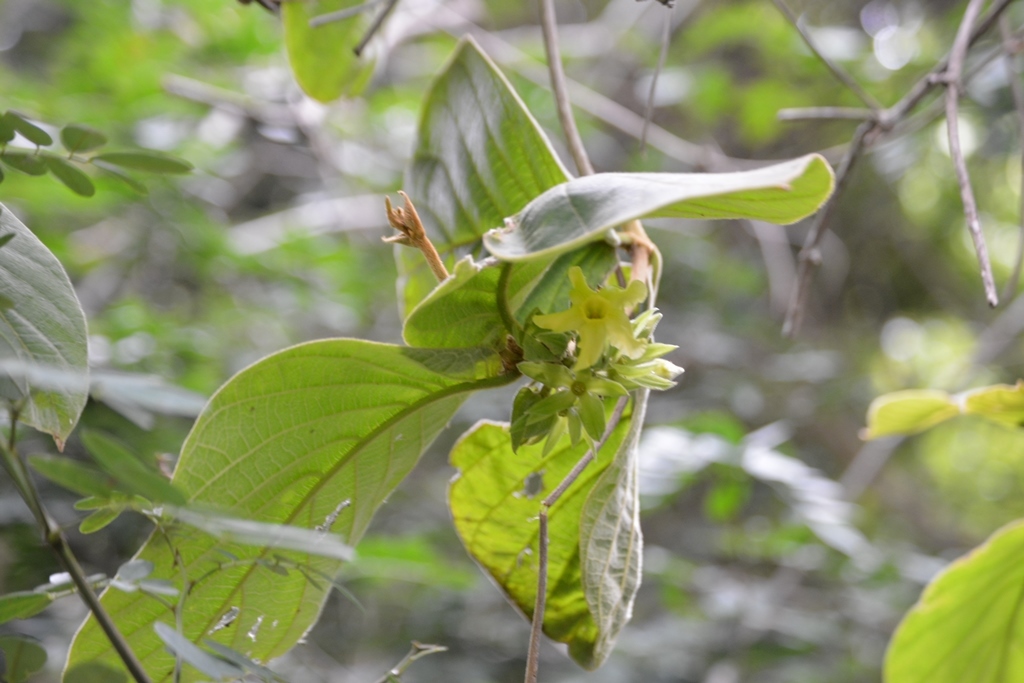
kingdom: Plantae
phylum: Tracheophyta
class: Magnoliopsida
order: Gentianales
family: Apocynaceae
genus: Prestonia
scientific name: Prestonia mexicana
